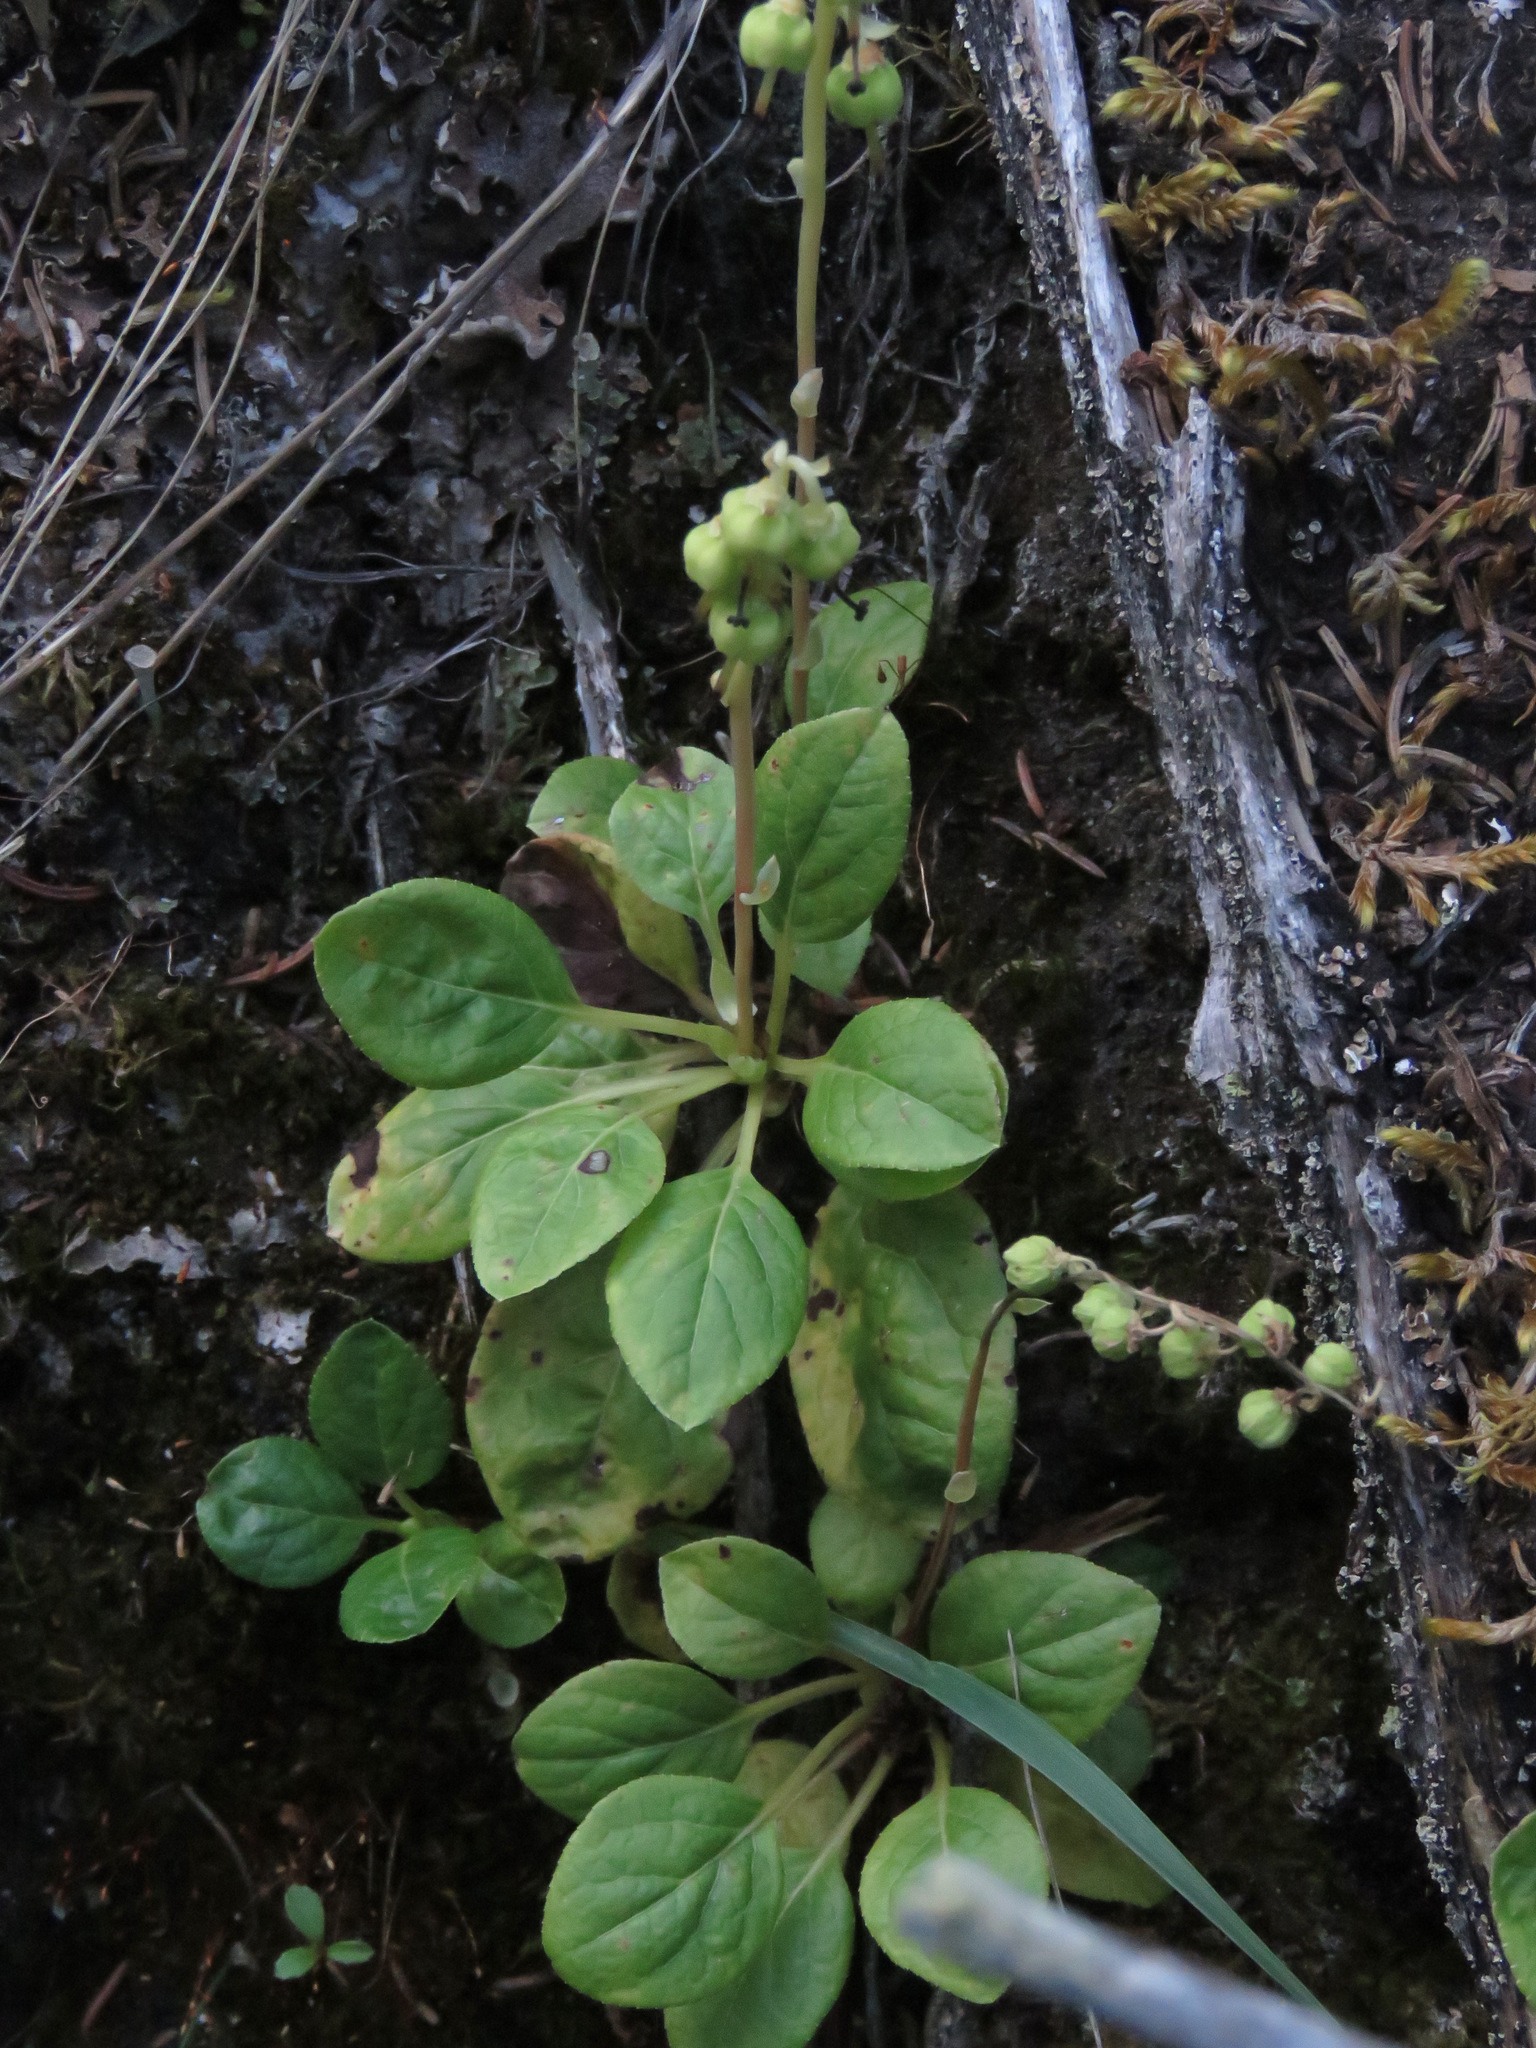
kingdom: Plantae
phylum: Tracheophyta
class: Magnoliopsida
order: Ericales
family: Ericaceae
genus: Orthilia
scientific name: Orthilia secunda
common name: One-sided orthilia
